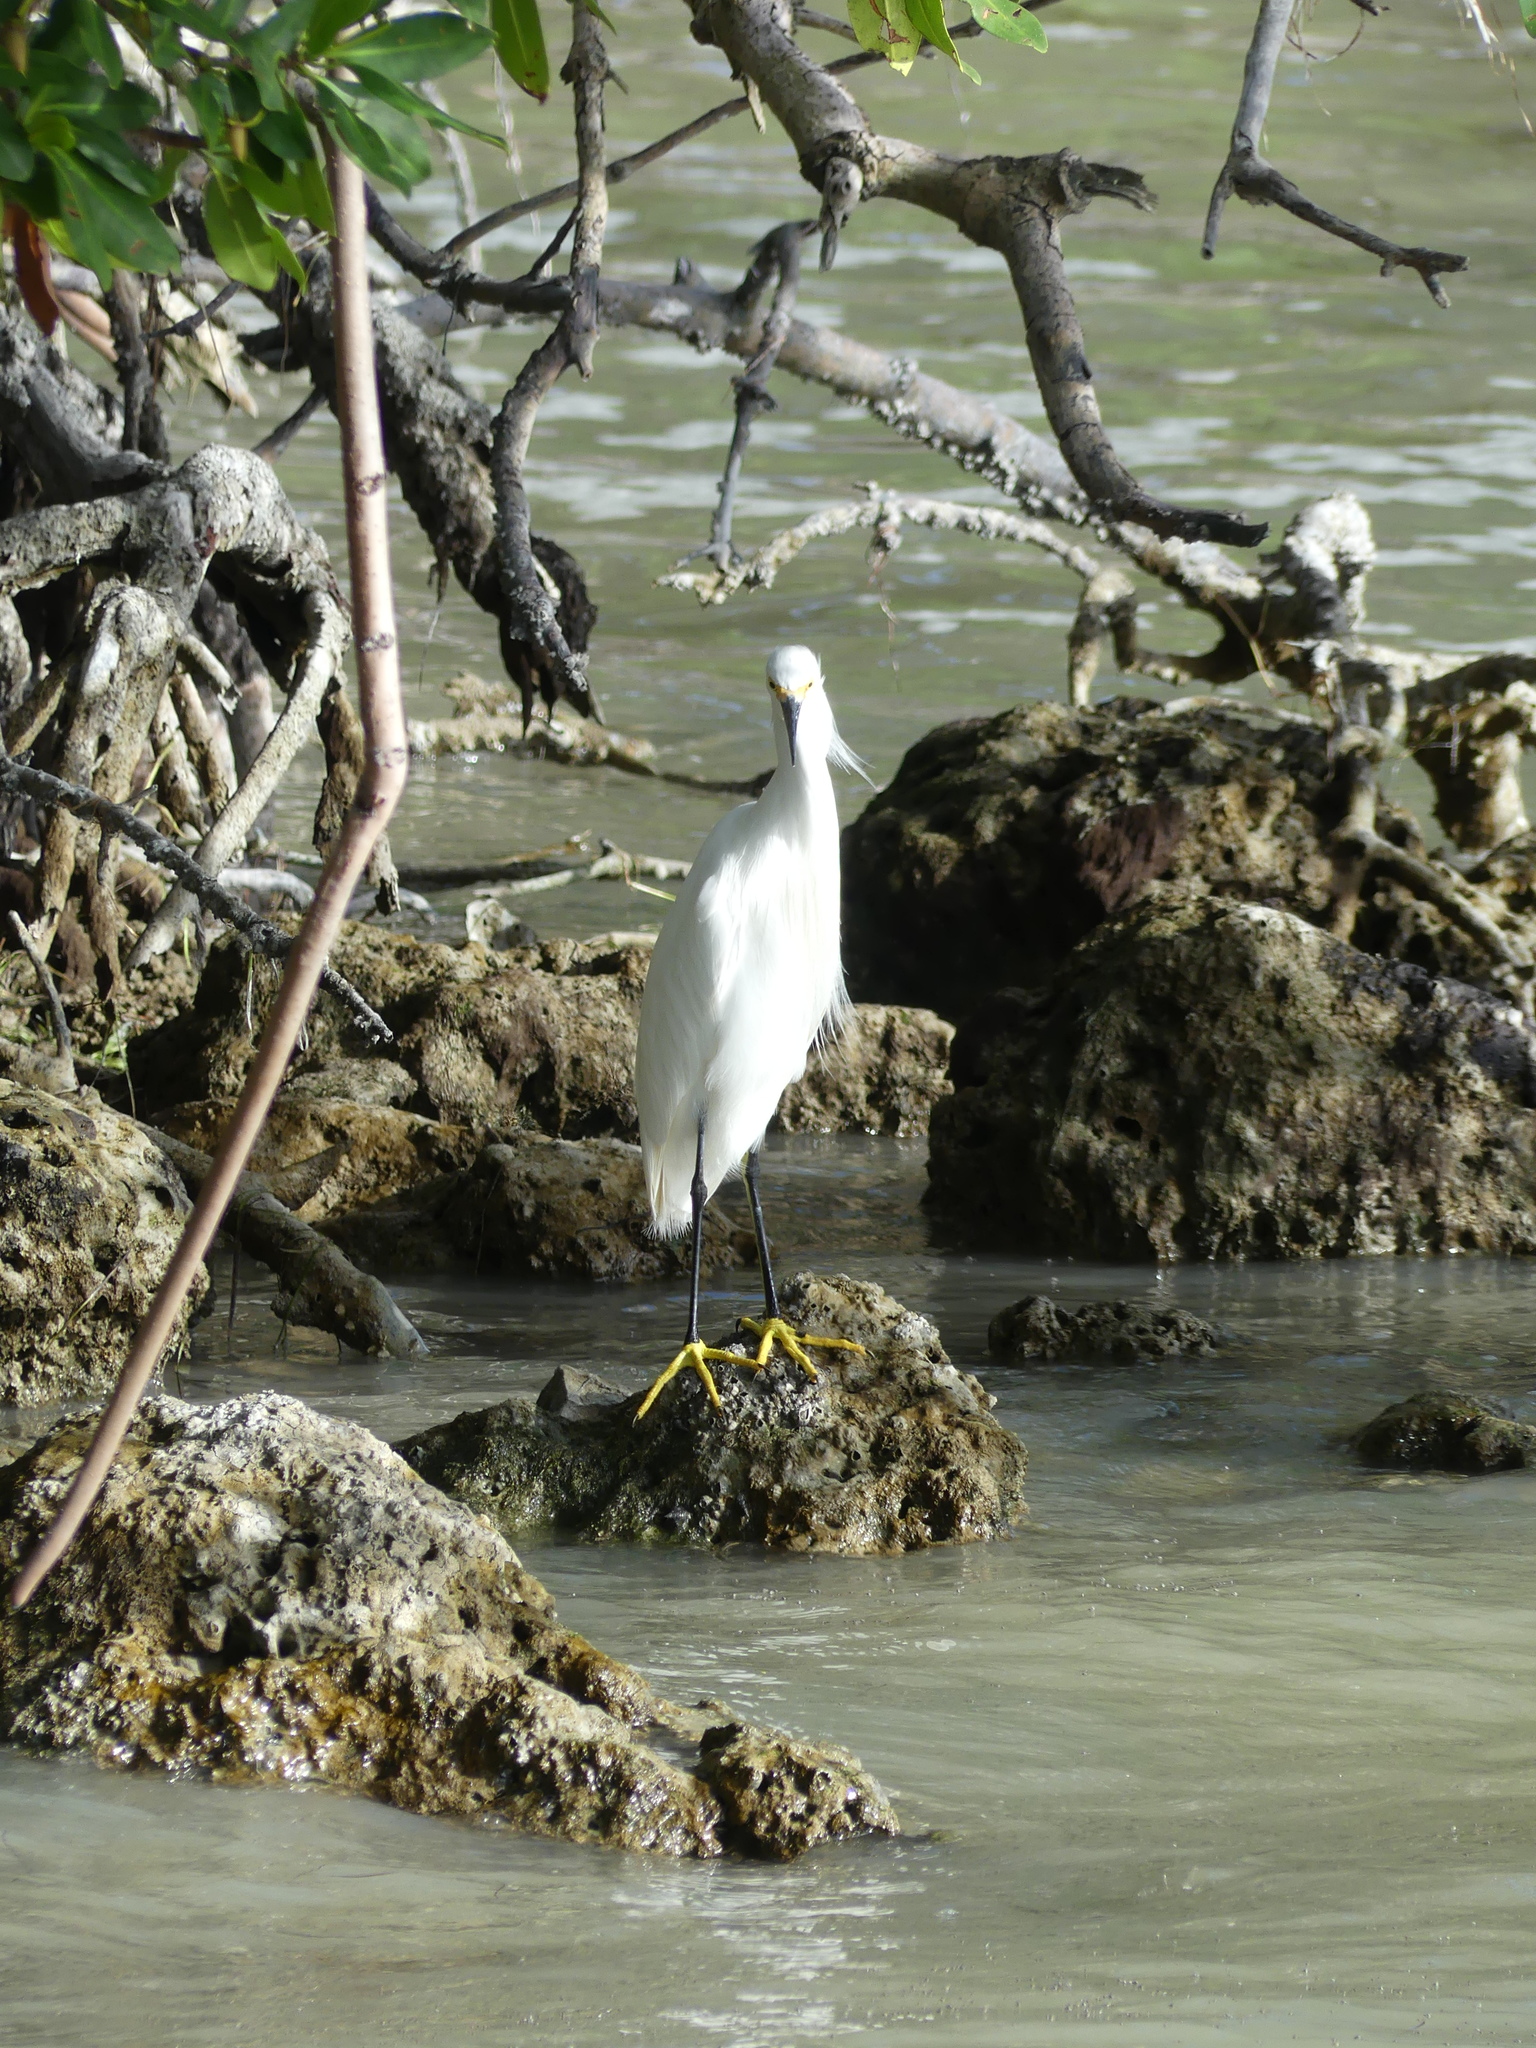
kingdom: Animalia
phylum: Chordata
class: Aves
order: Pelecaniformes
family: Ardeidae
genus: Egretta
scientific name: Egretta thula
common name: Snowy egret
